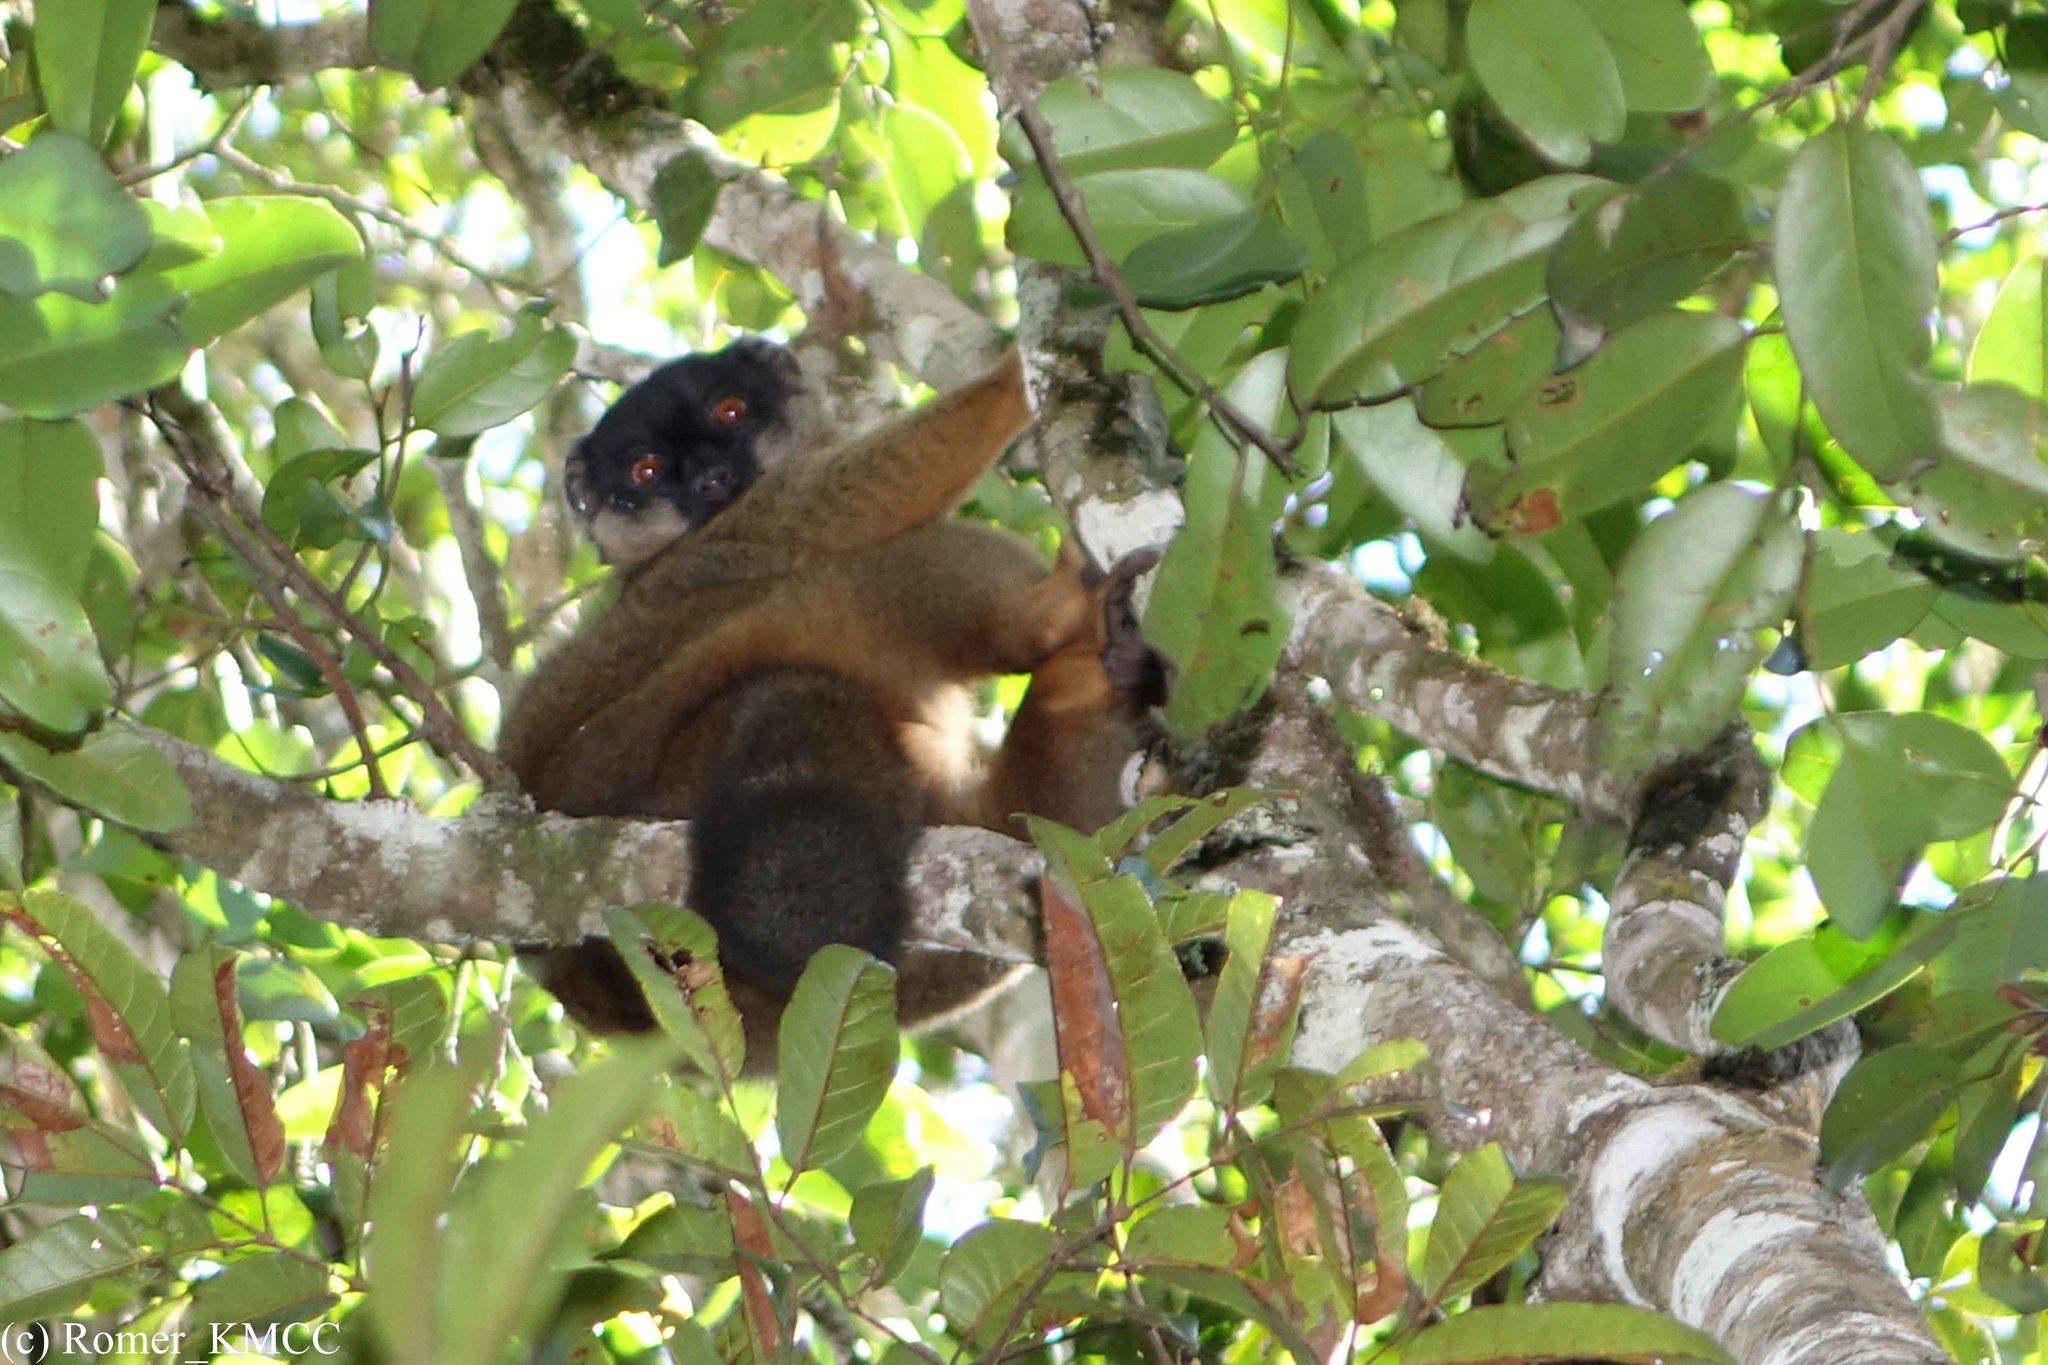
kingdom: Animalia
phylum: Chordata
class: Mammalia
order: Primates
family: Lemuridae
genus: Eulemur
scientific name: Eulemur fulvus
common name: Brown lemur
